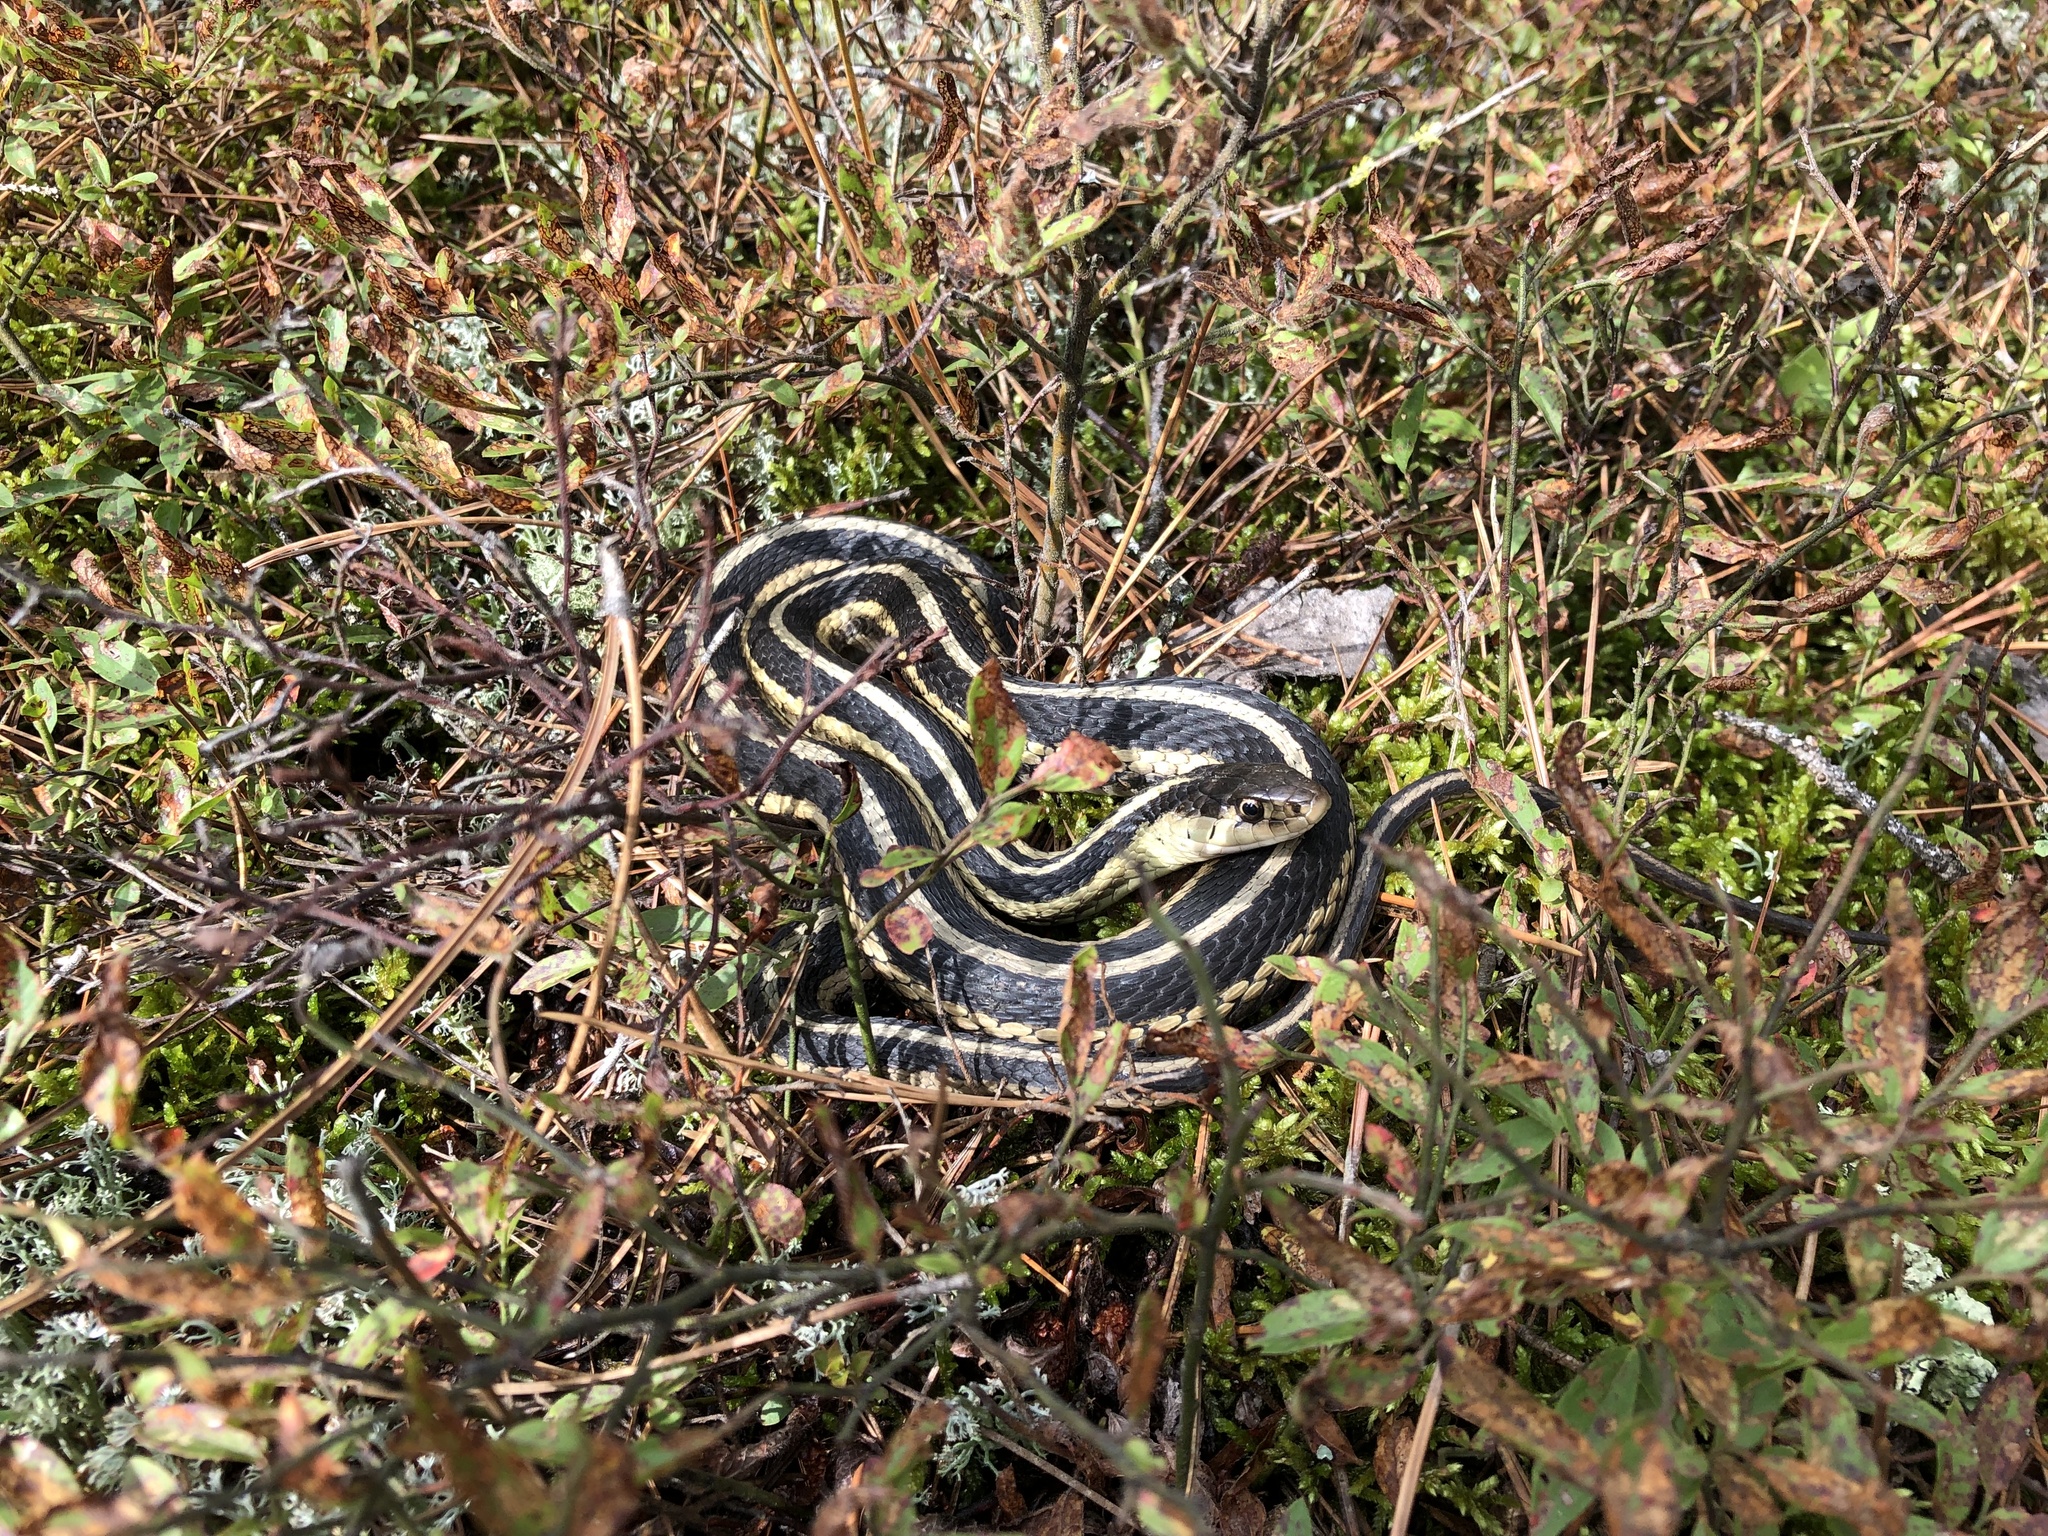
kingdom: Animalia
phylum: Chordata
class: Squamata
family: Colubridae
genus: Thamnophis
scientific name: Thamnophis sirtalis
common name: Common garter snake
